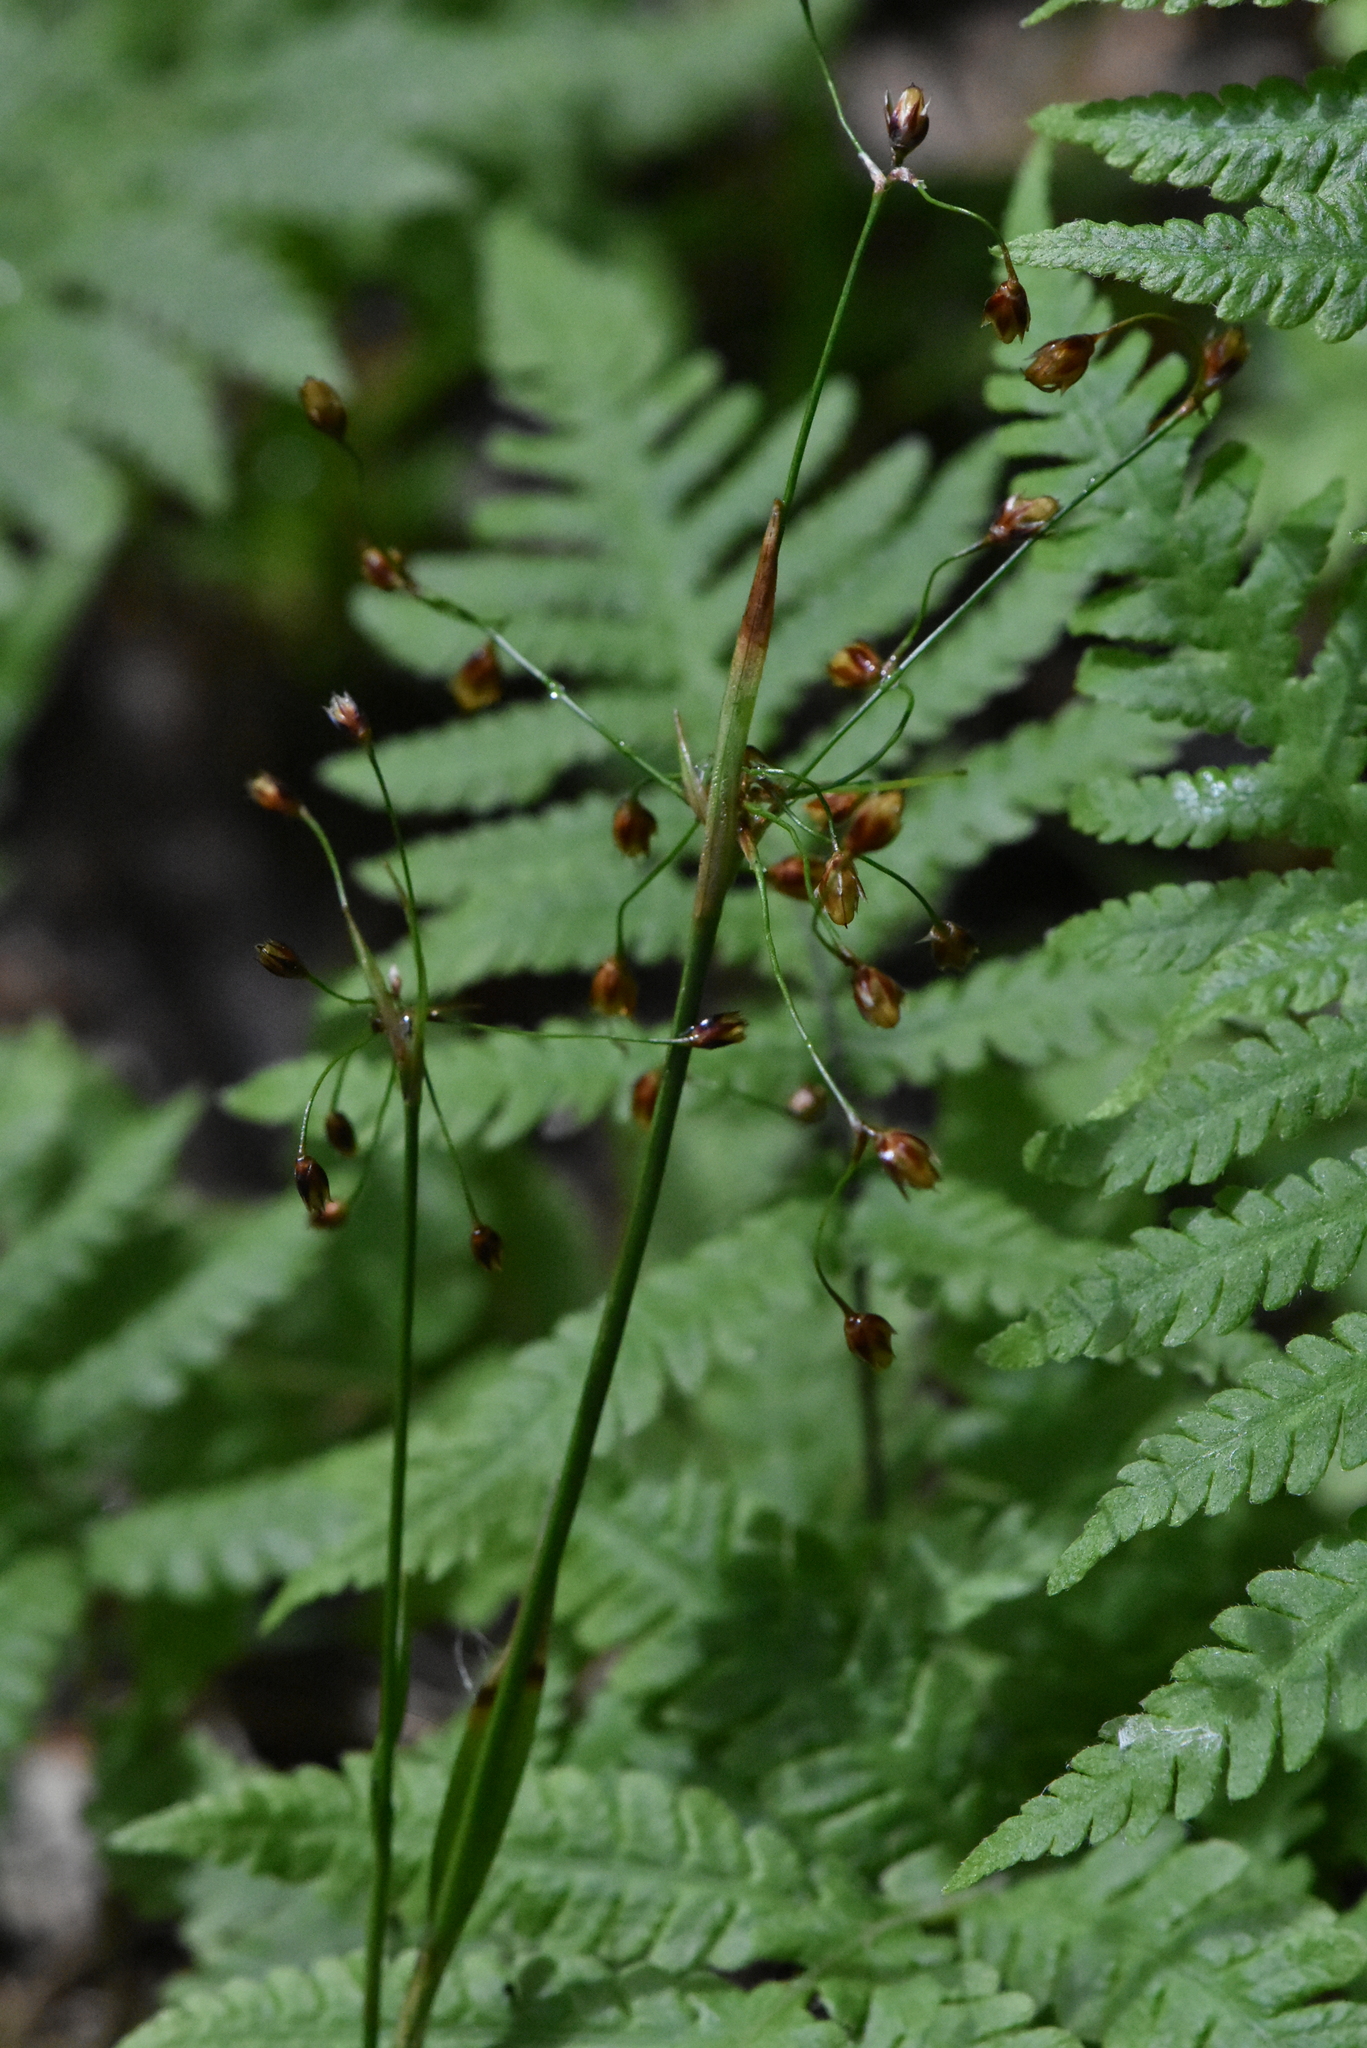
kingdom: Plantae
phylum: Tracheophyta
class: Liliopsida
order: Poales
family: Juncaceae
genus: Luzula
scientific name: Luzula pilosa
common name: Hairy wood-rush
